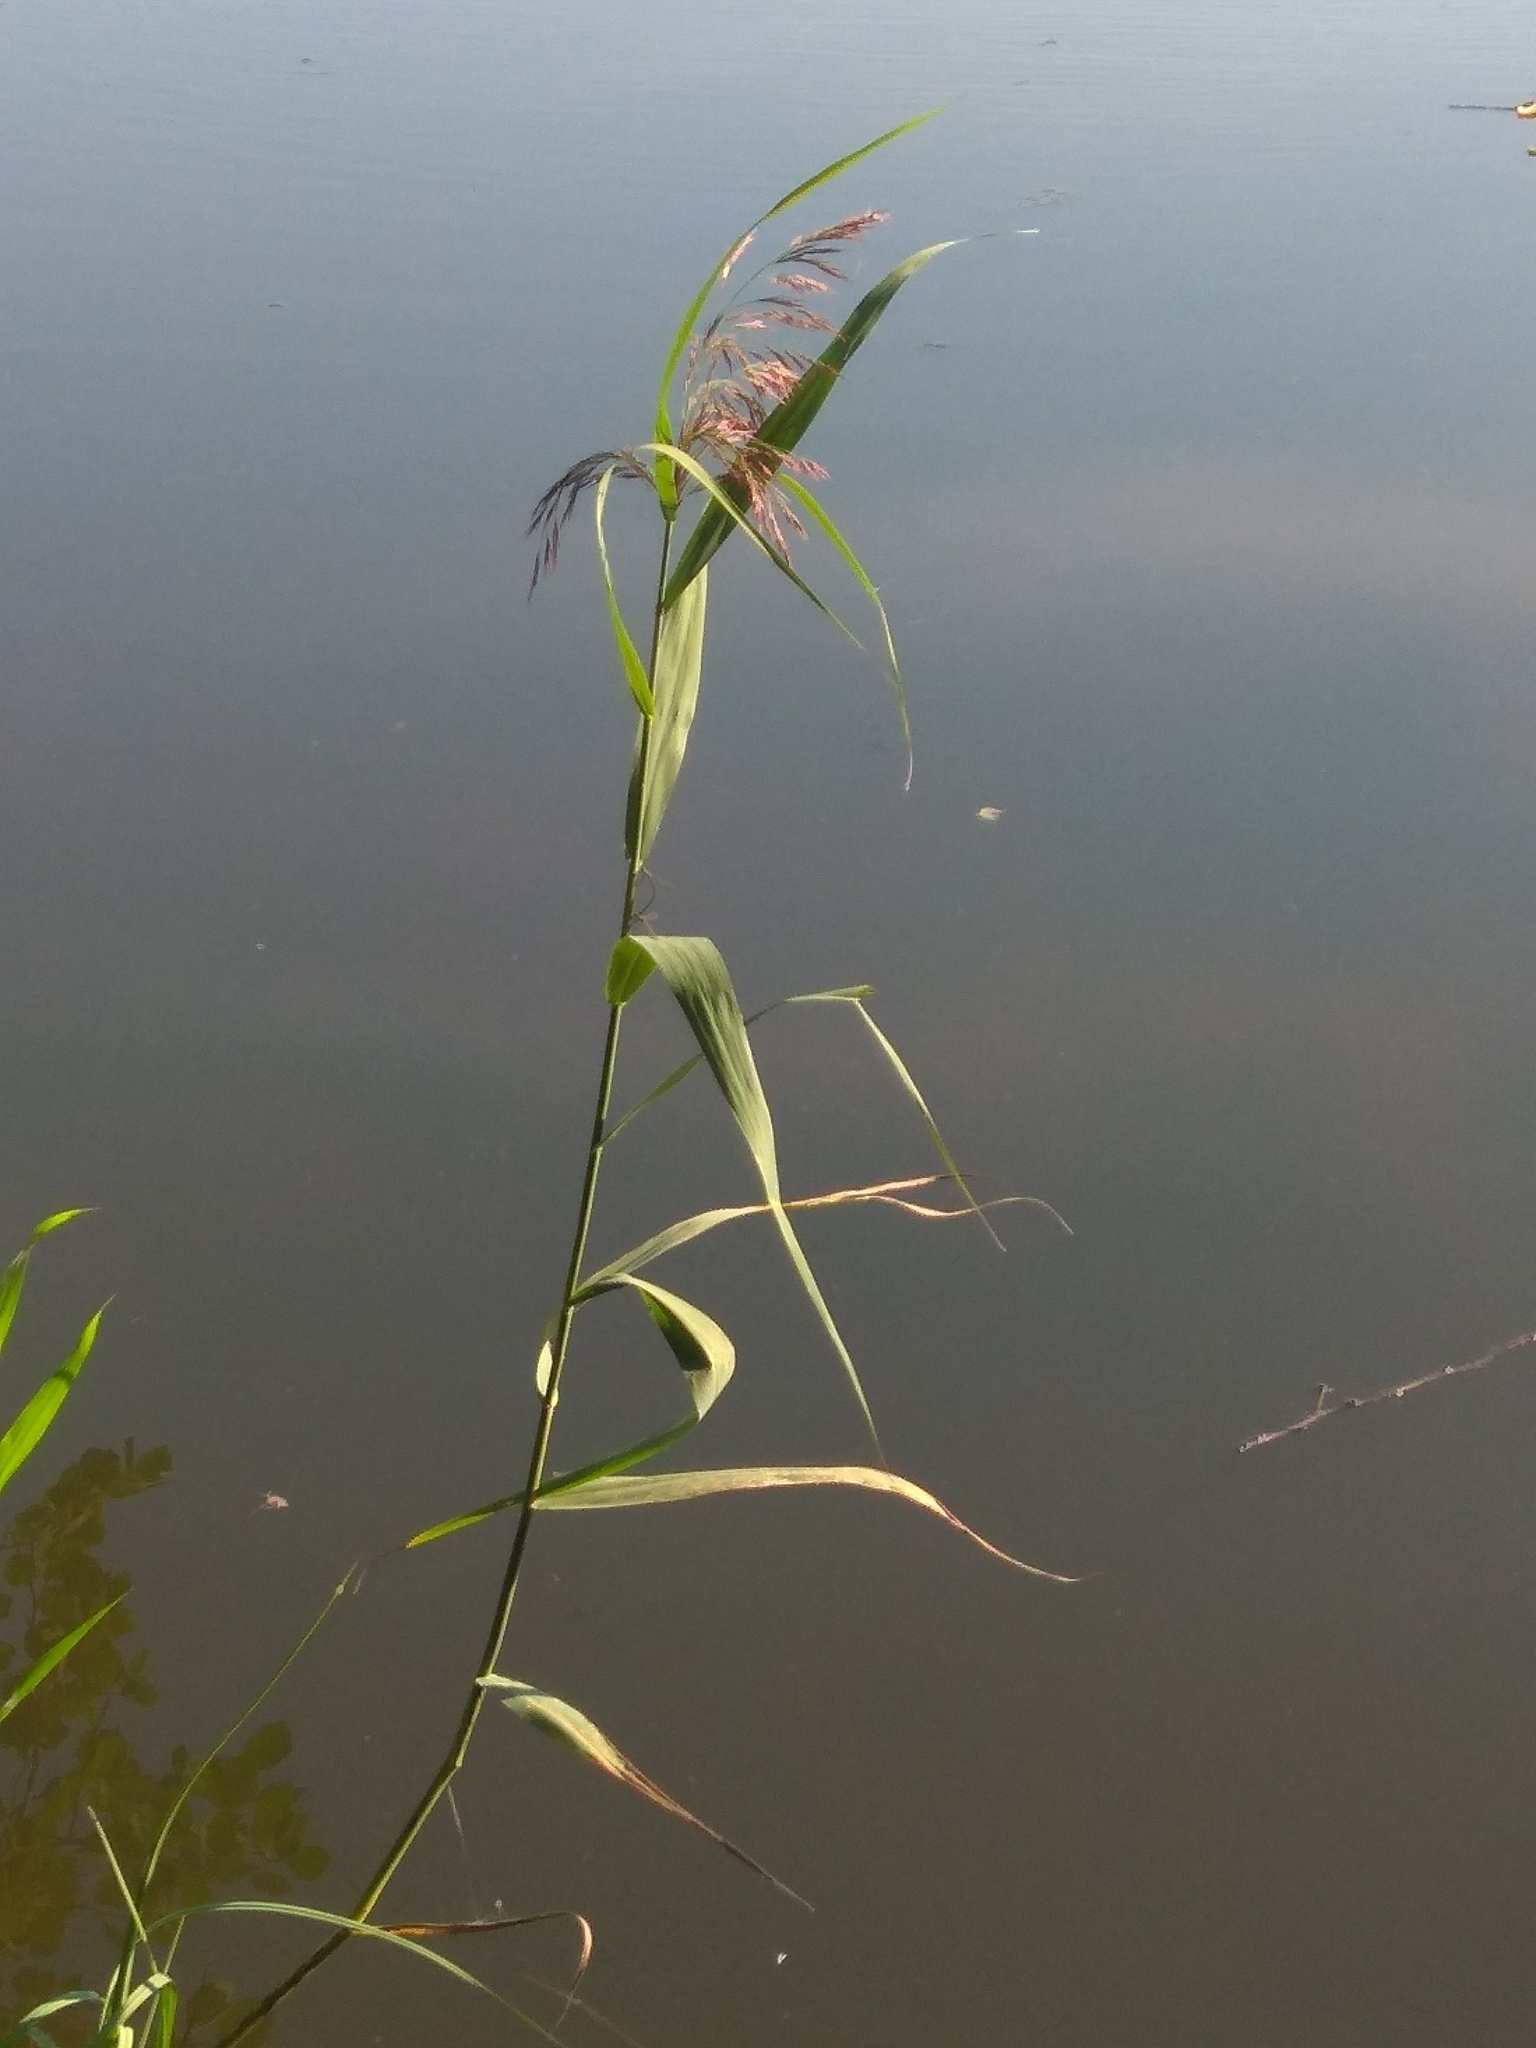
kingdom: Plantae
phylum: Tracheophyta
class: Liliopsida
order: Poales
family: Poaceae
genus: Phragmites
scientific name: Phragmites australis
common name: Common reed
